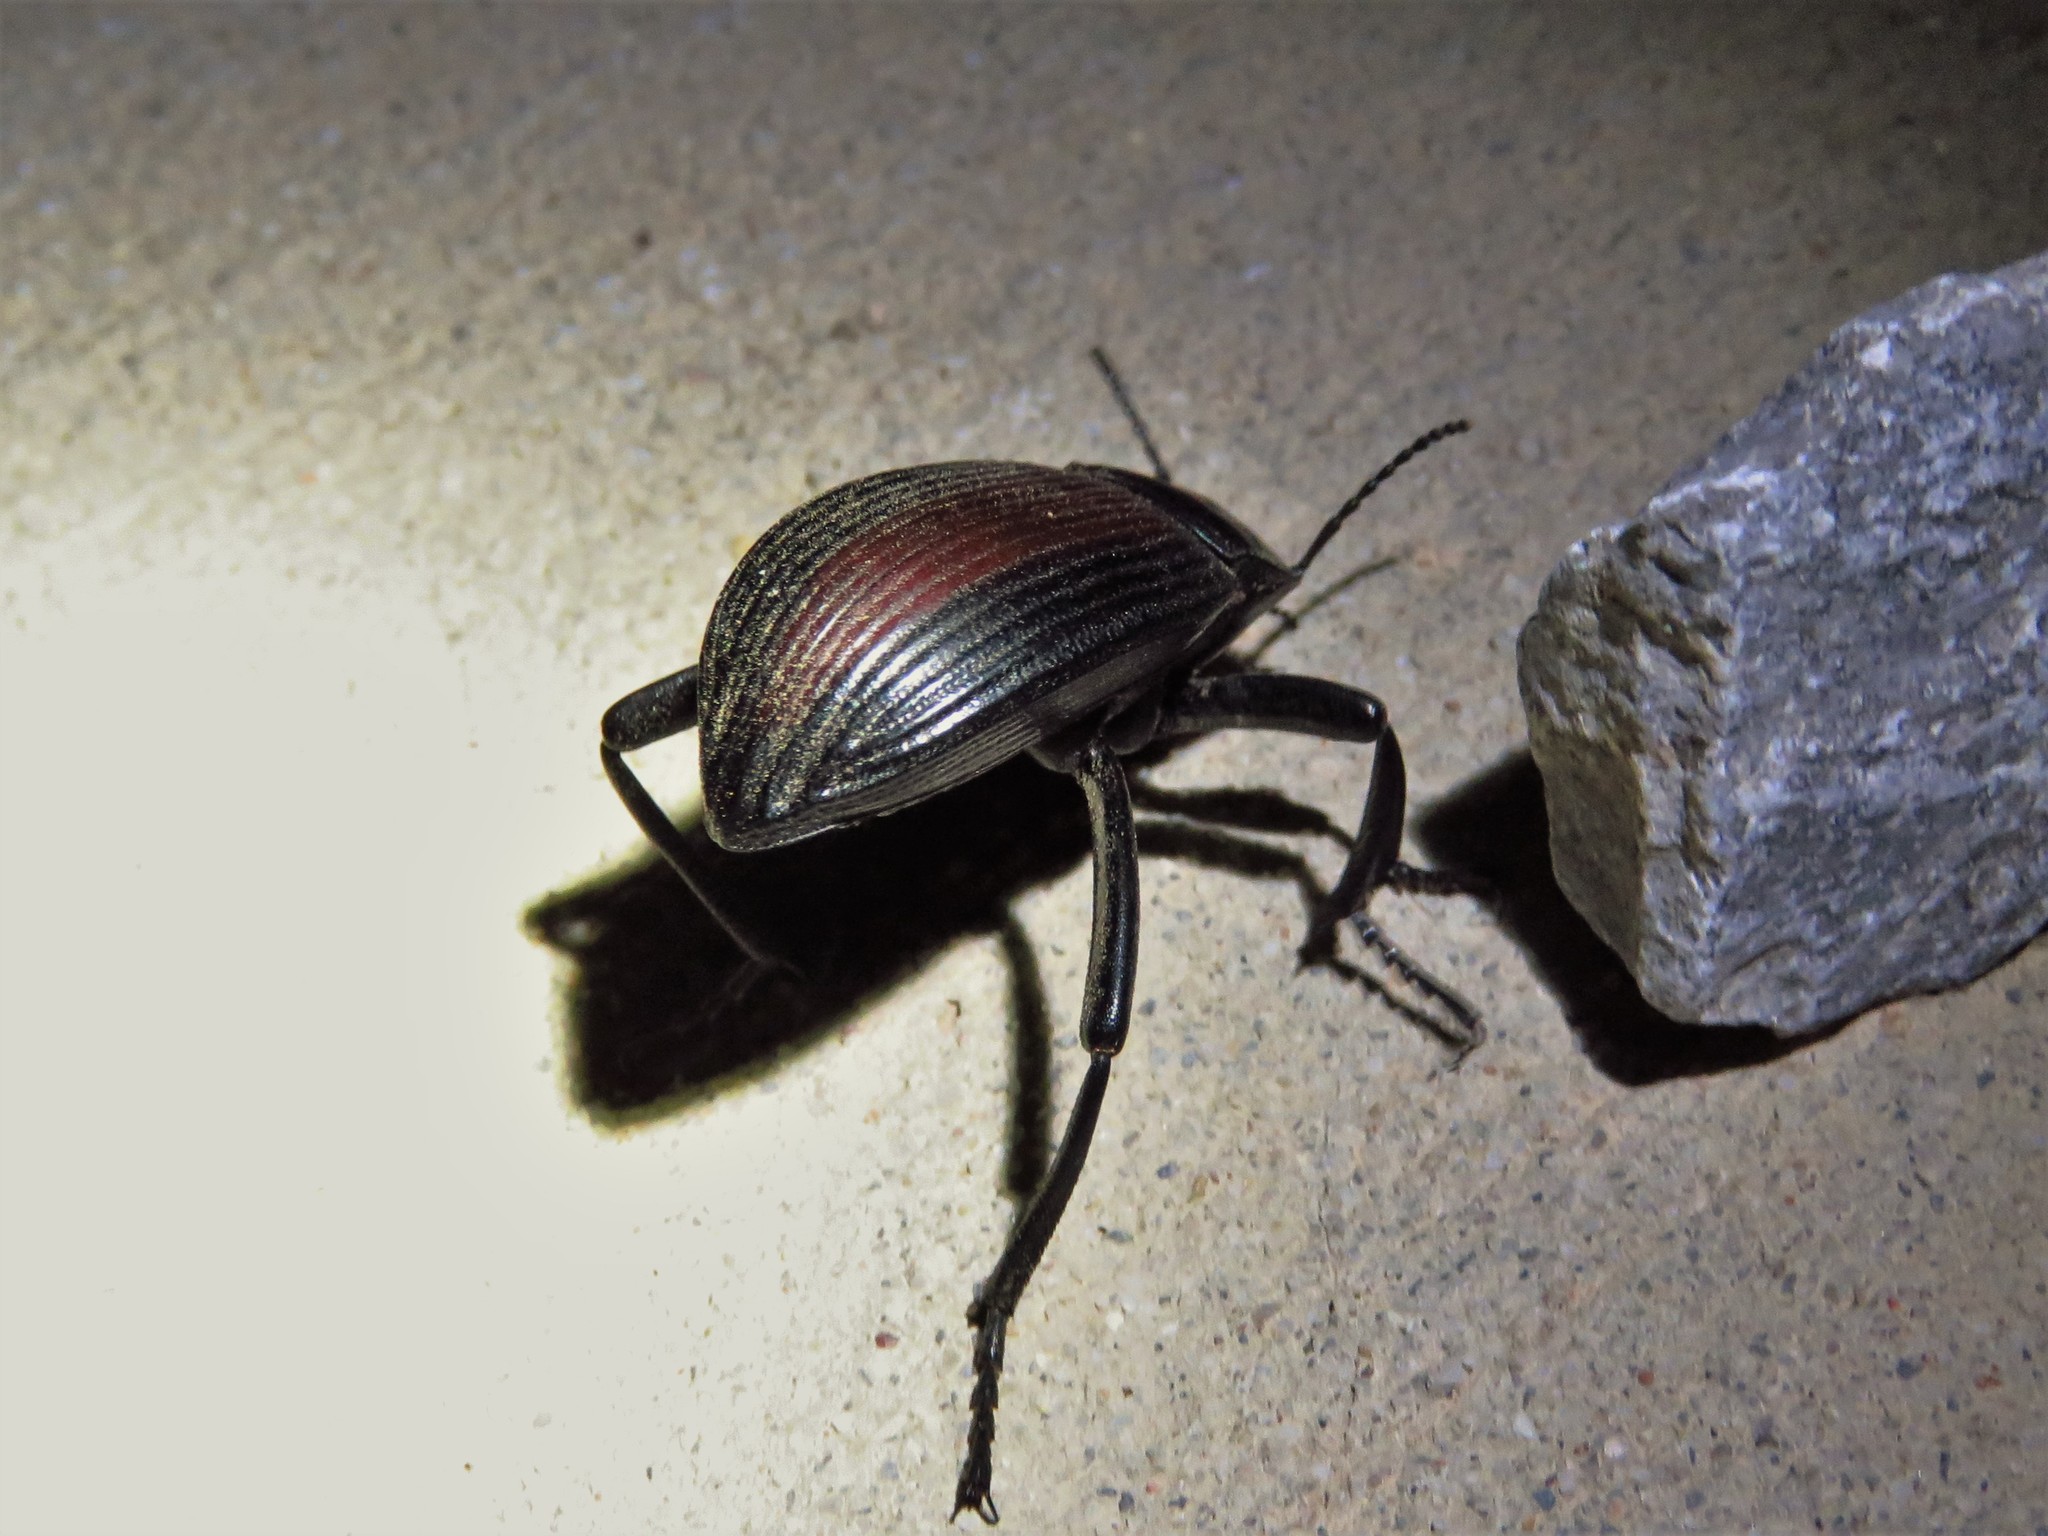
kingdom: Animalia
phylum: Arthropoda
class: Insecta
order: Coleoptera
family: Tenebrionidae
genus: Eleodes
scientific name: Eleodes acuta
